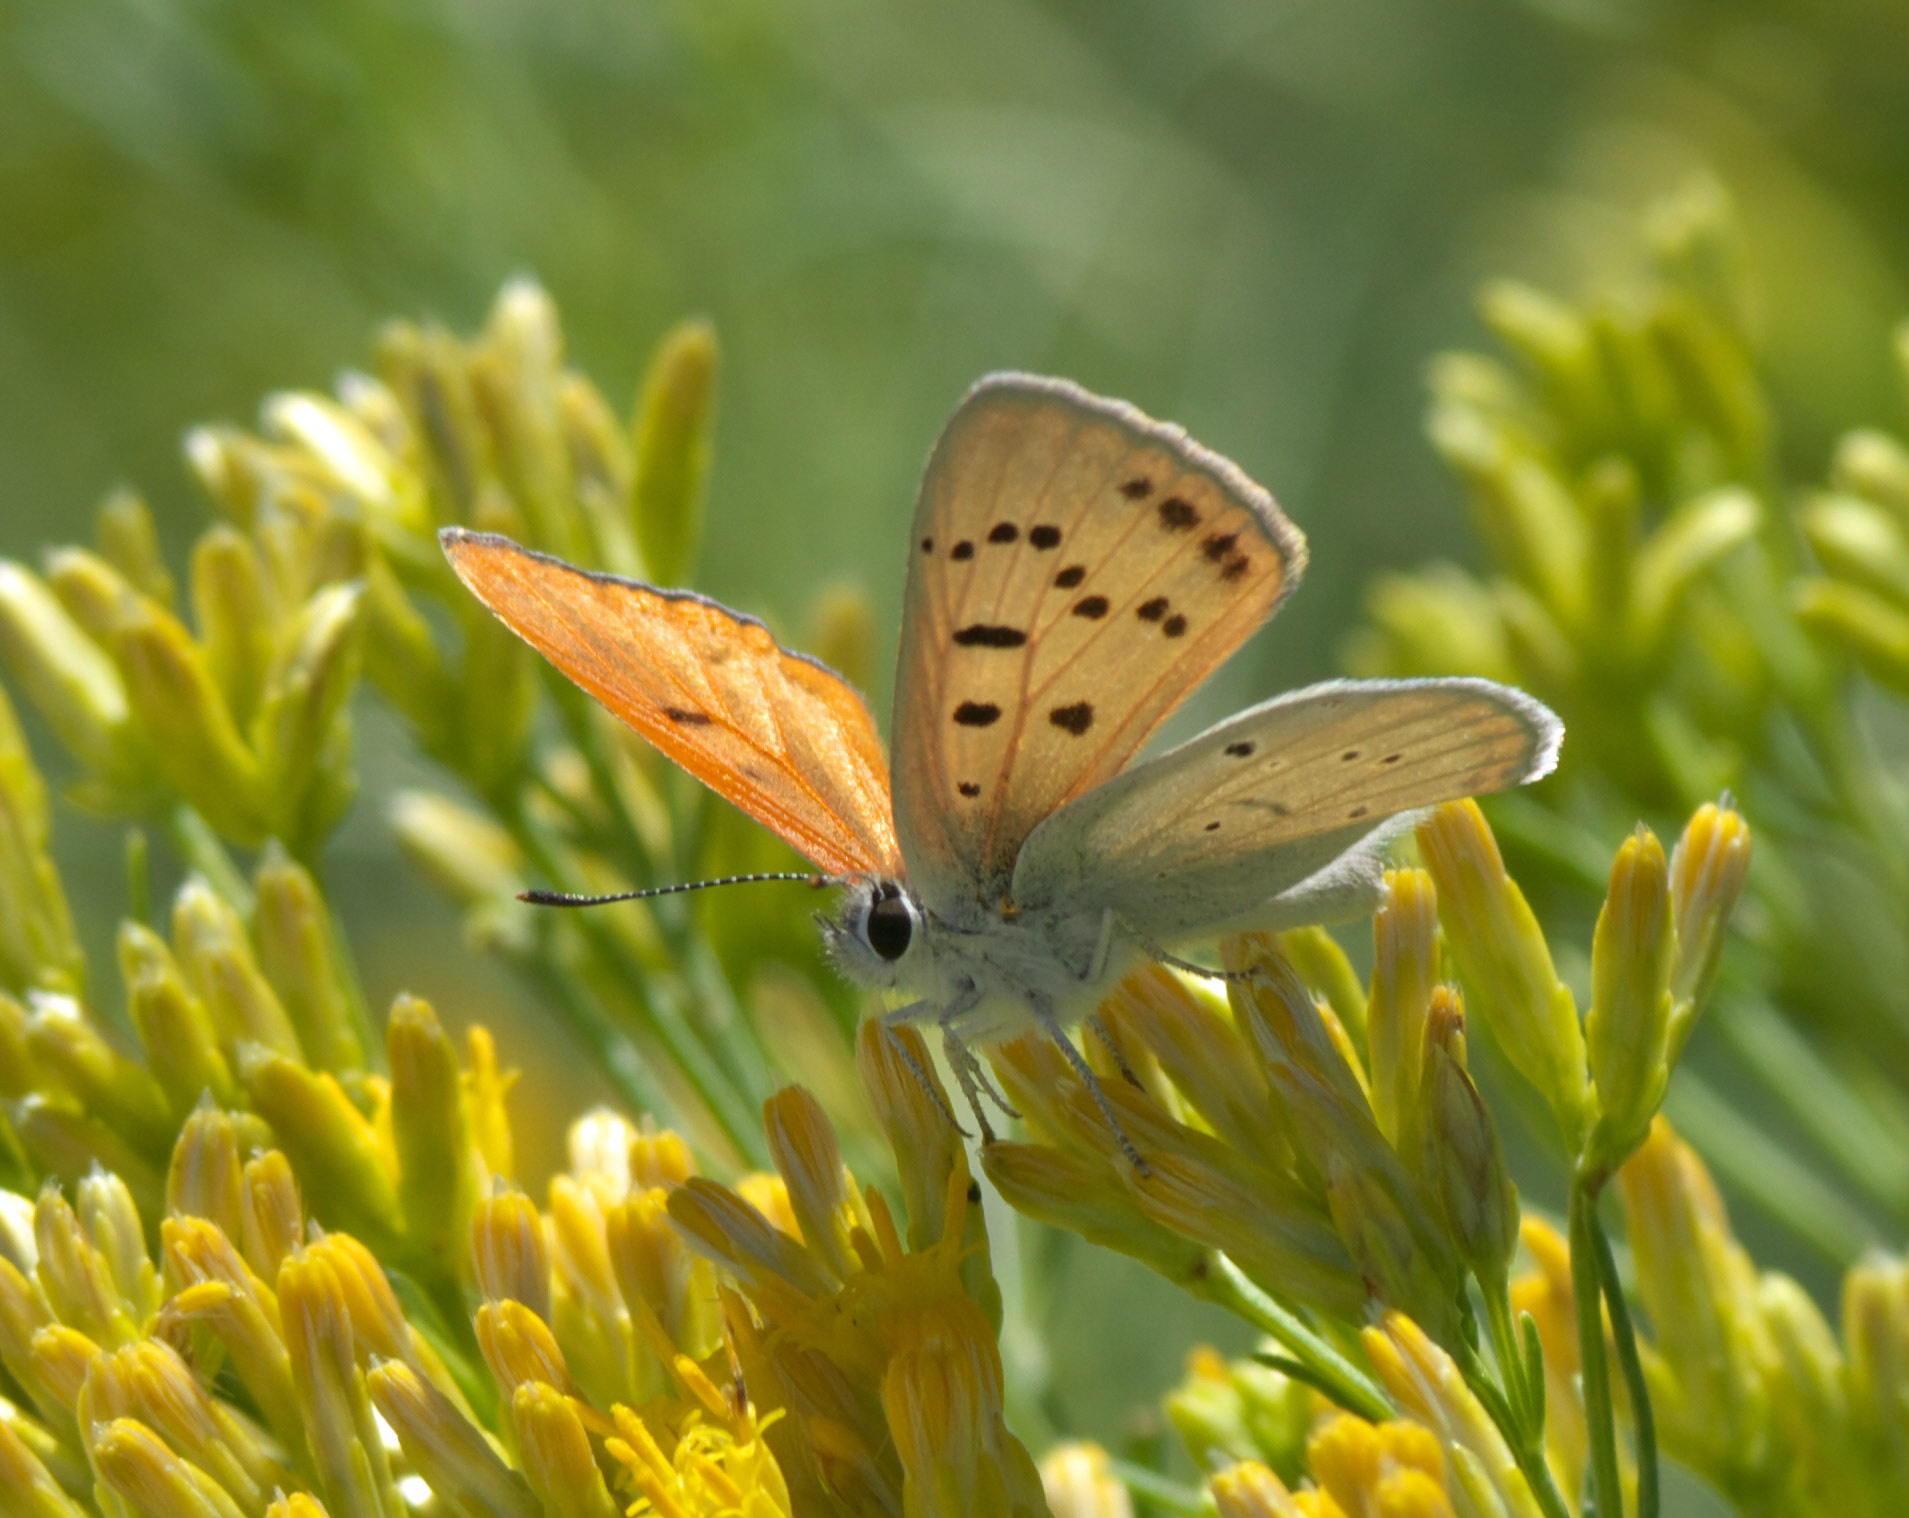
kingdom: Animalia
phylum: Arthropoda
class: Insecta
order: Lepidoptera
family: Lycaenidae
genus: Tharsalea
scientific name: Tharsalea rubidus
